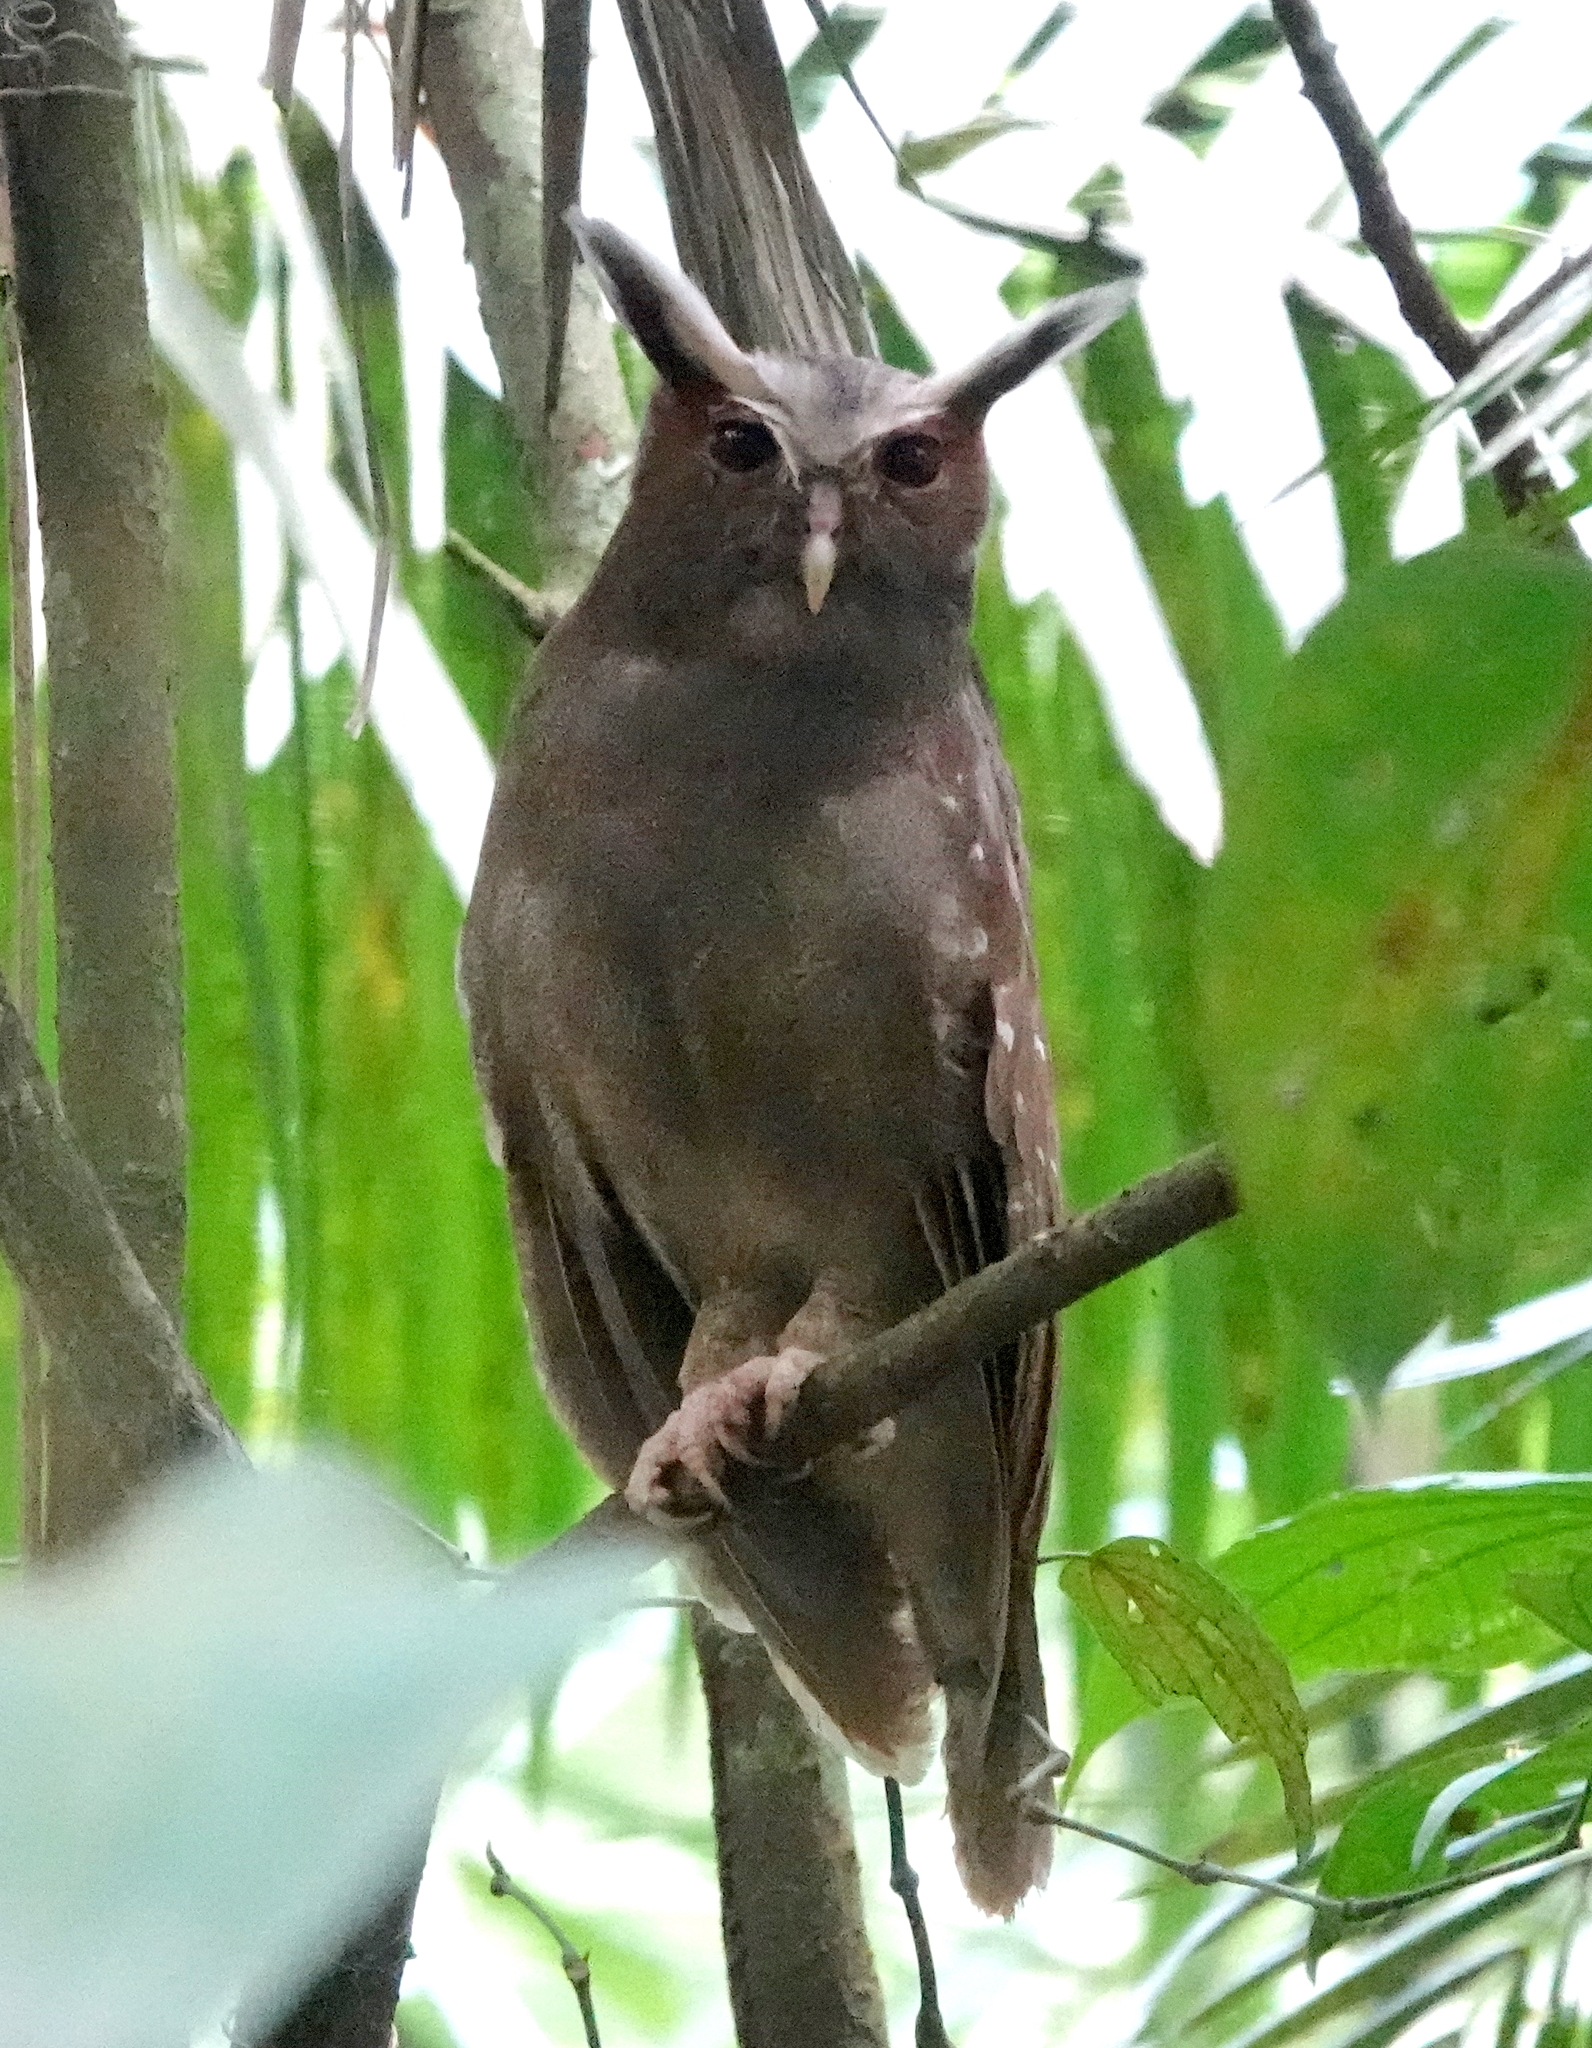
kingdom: Animalia
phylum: Chordata
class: Aves
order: Strigiformes
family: Strigidae
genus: Lophostrix
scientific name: Lophostrix cristata
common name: Crested owl
